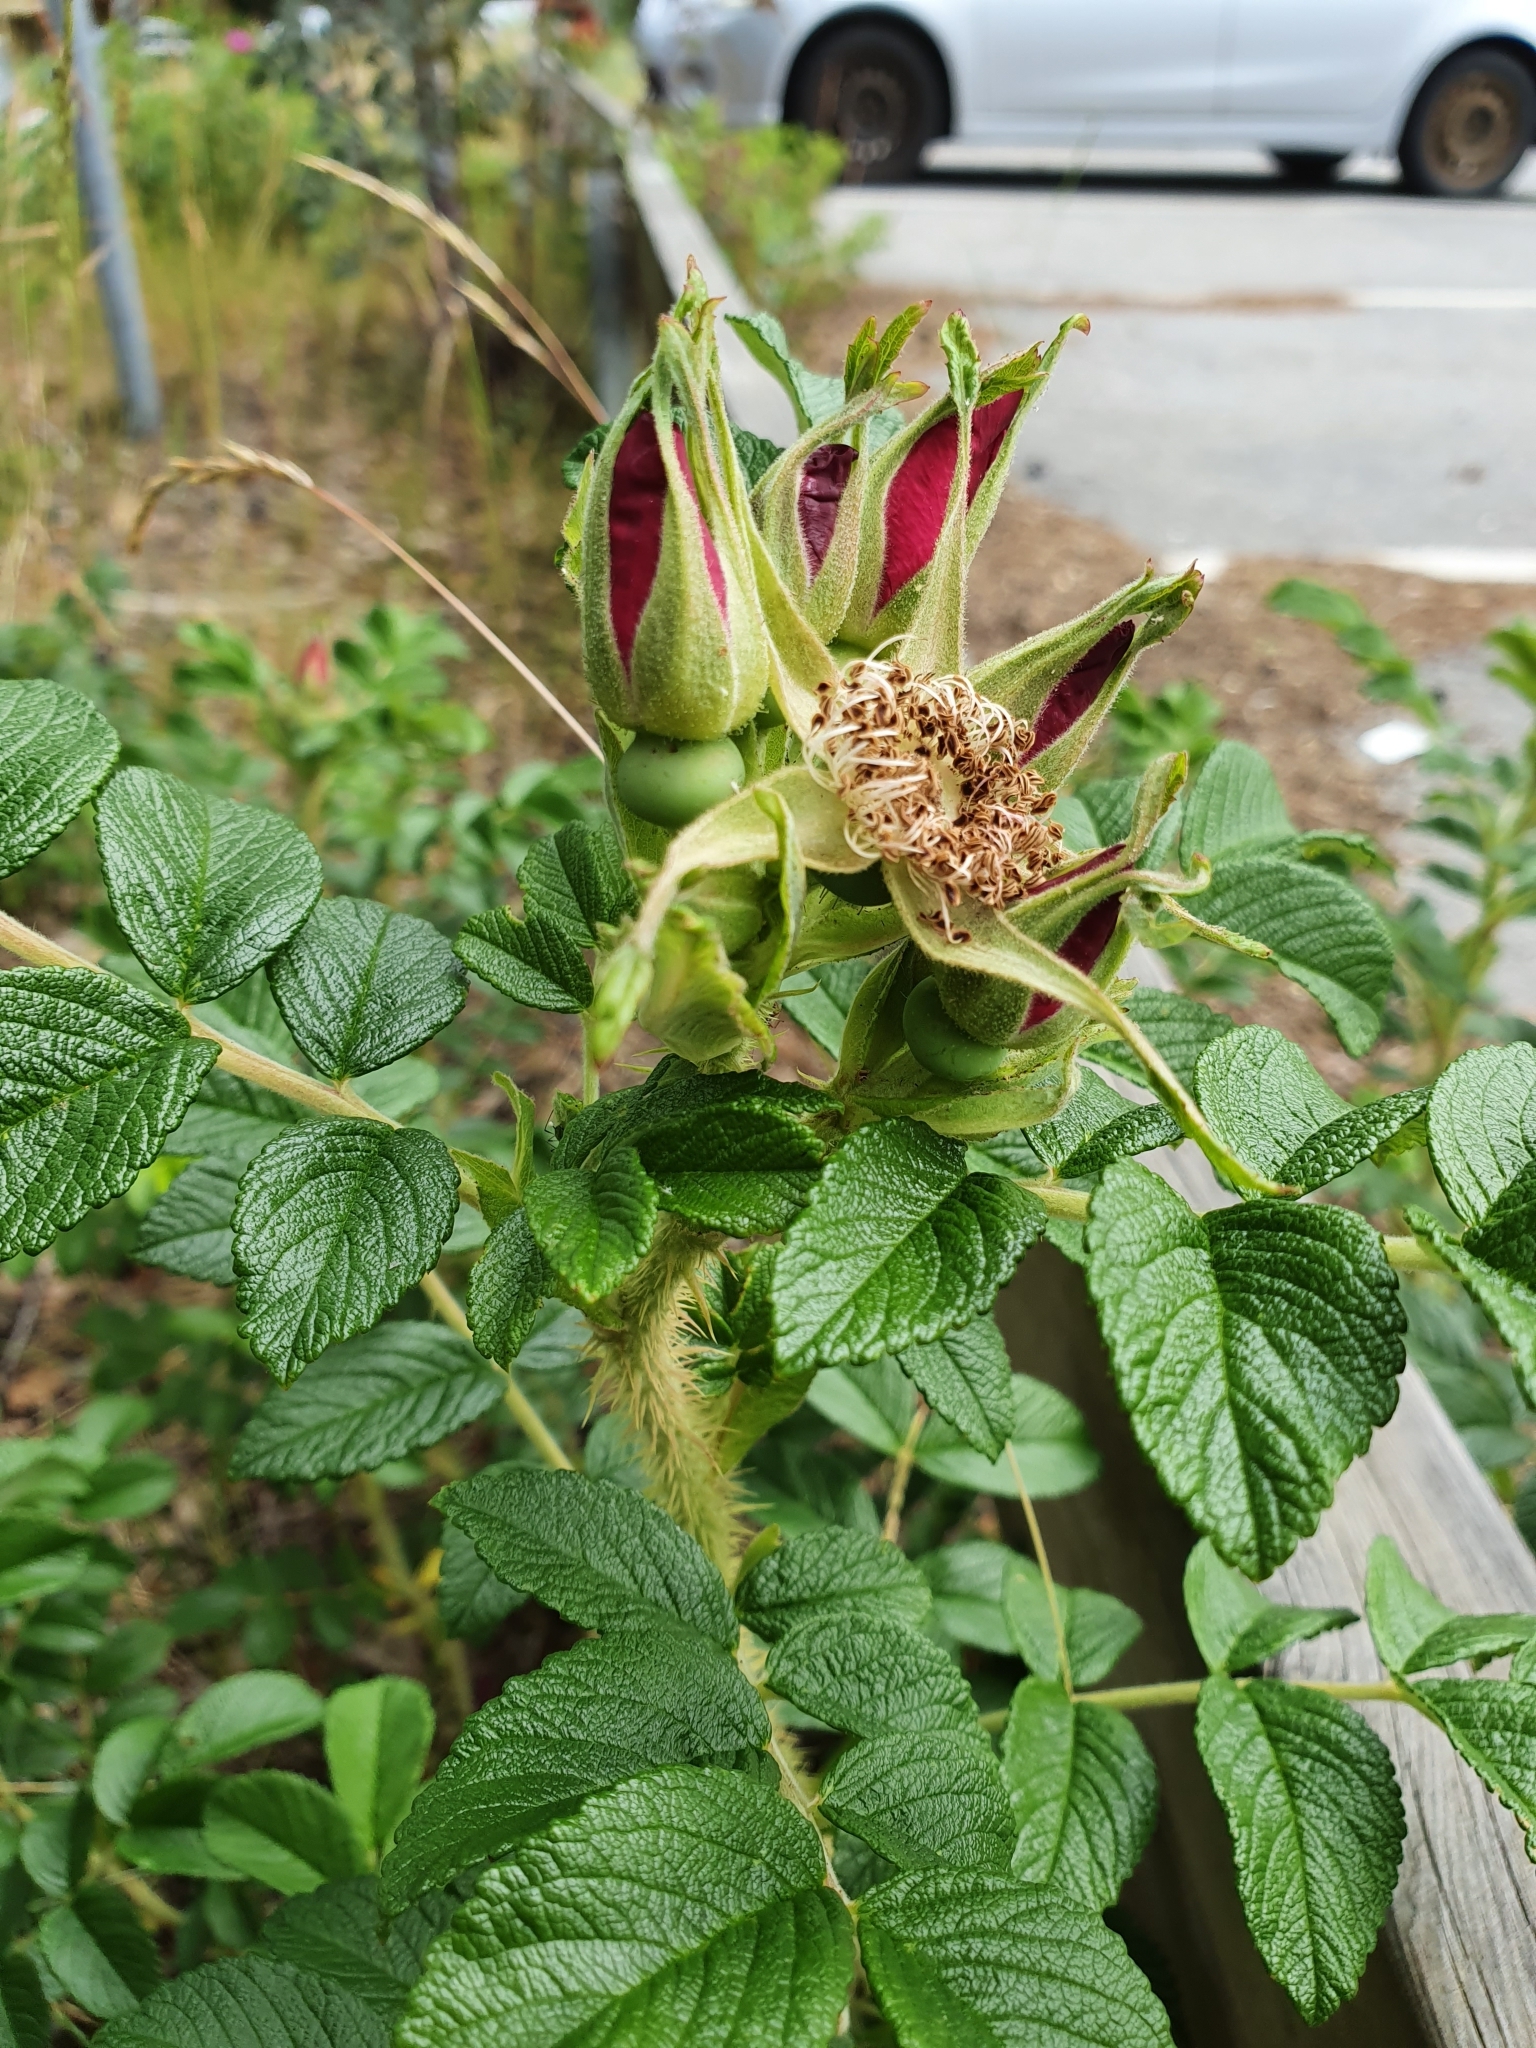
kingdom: Plantae
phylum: Tracheophyta
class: Magnoliopsida
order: Rosales
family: Rosaceae
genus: Rosa
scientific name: Rosa rugosa
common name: Japanese rose
